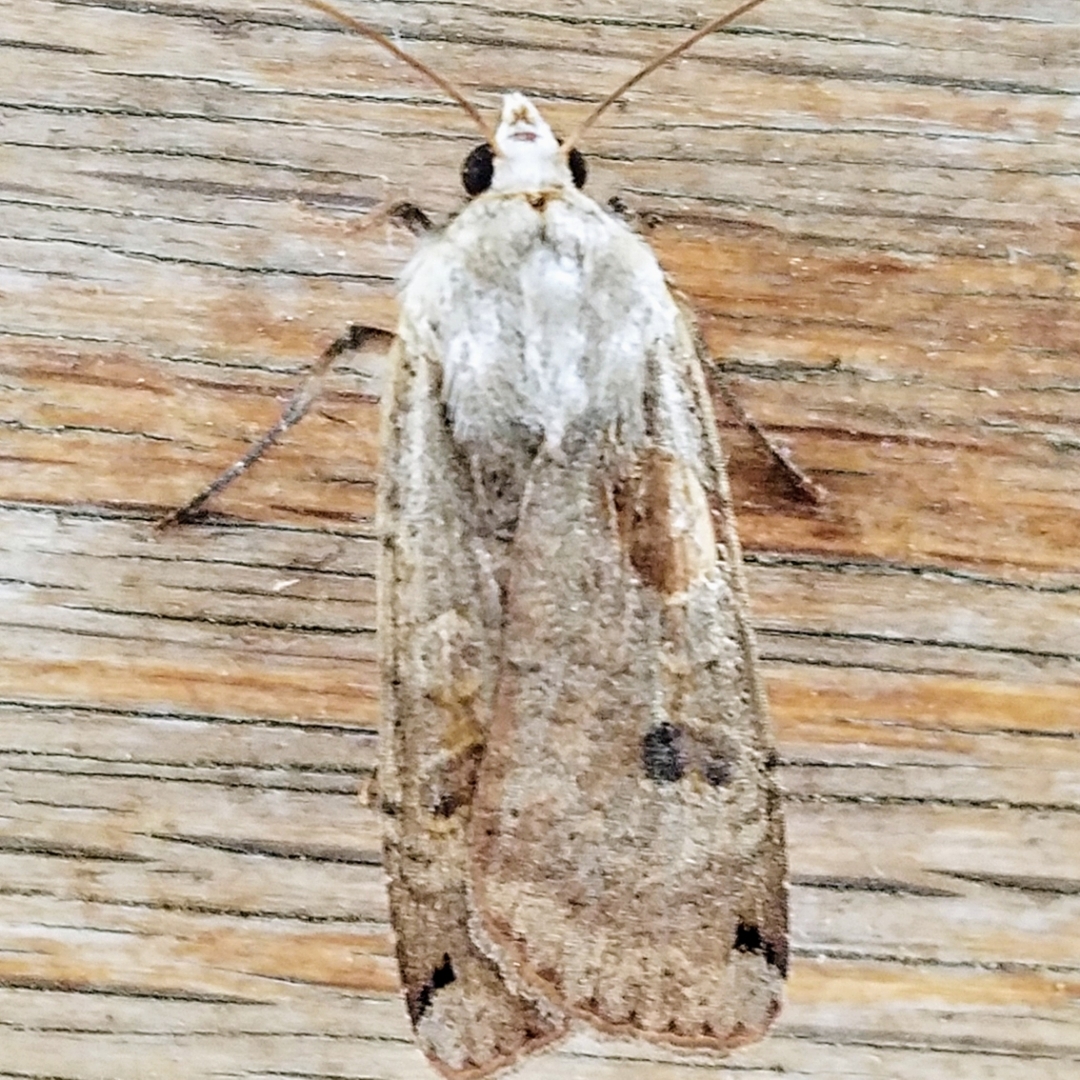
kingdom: Animalia
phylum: Arthropoda
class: Insecta
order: Lepidoptera
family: Noctuidae
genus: Noctua
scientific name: Noctua pronuba
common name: Large yellow underwing
